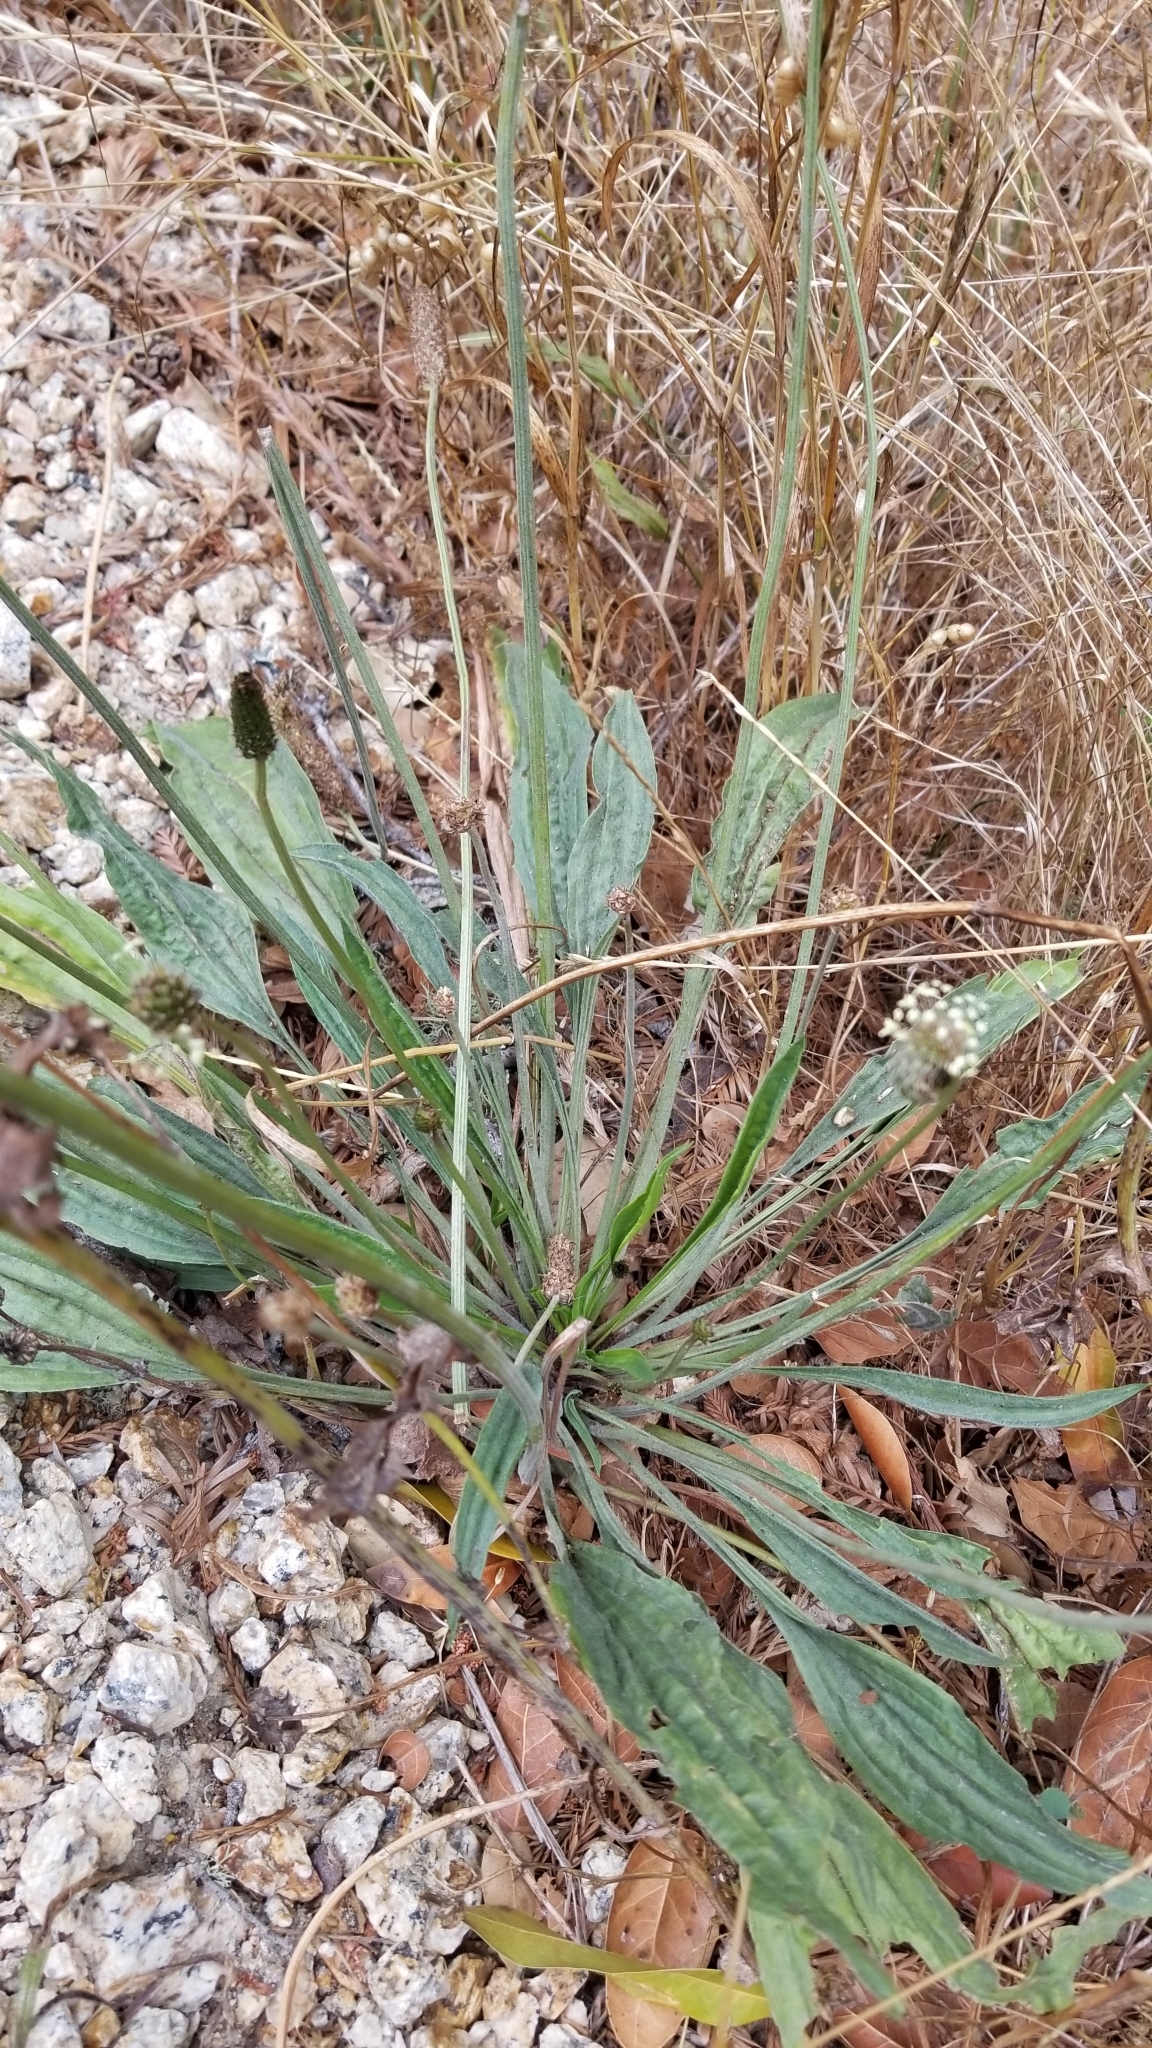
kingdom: Plantae
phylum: Tracheophyta
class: Magnoliopsida
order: Lamiales
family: Plantaginaceae
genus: Plantago
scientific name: Plantago lanceolata
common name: Ribwort plantain
